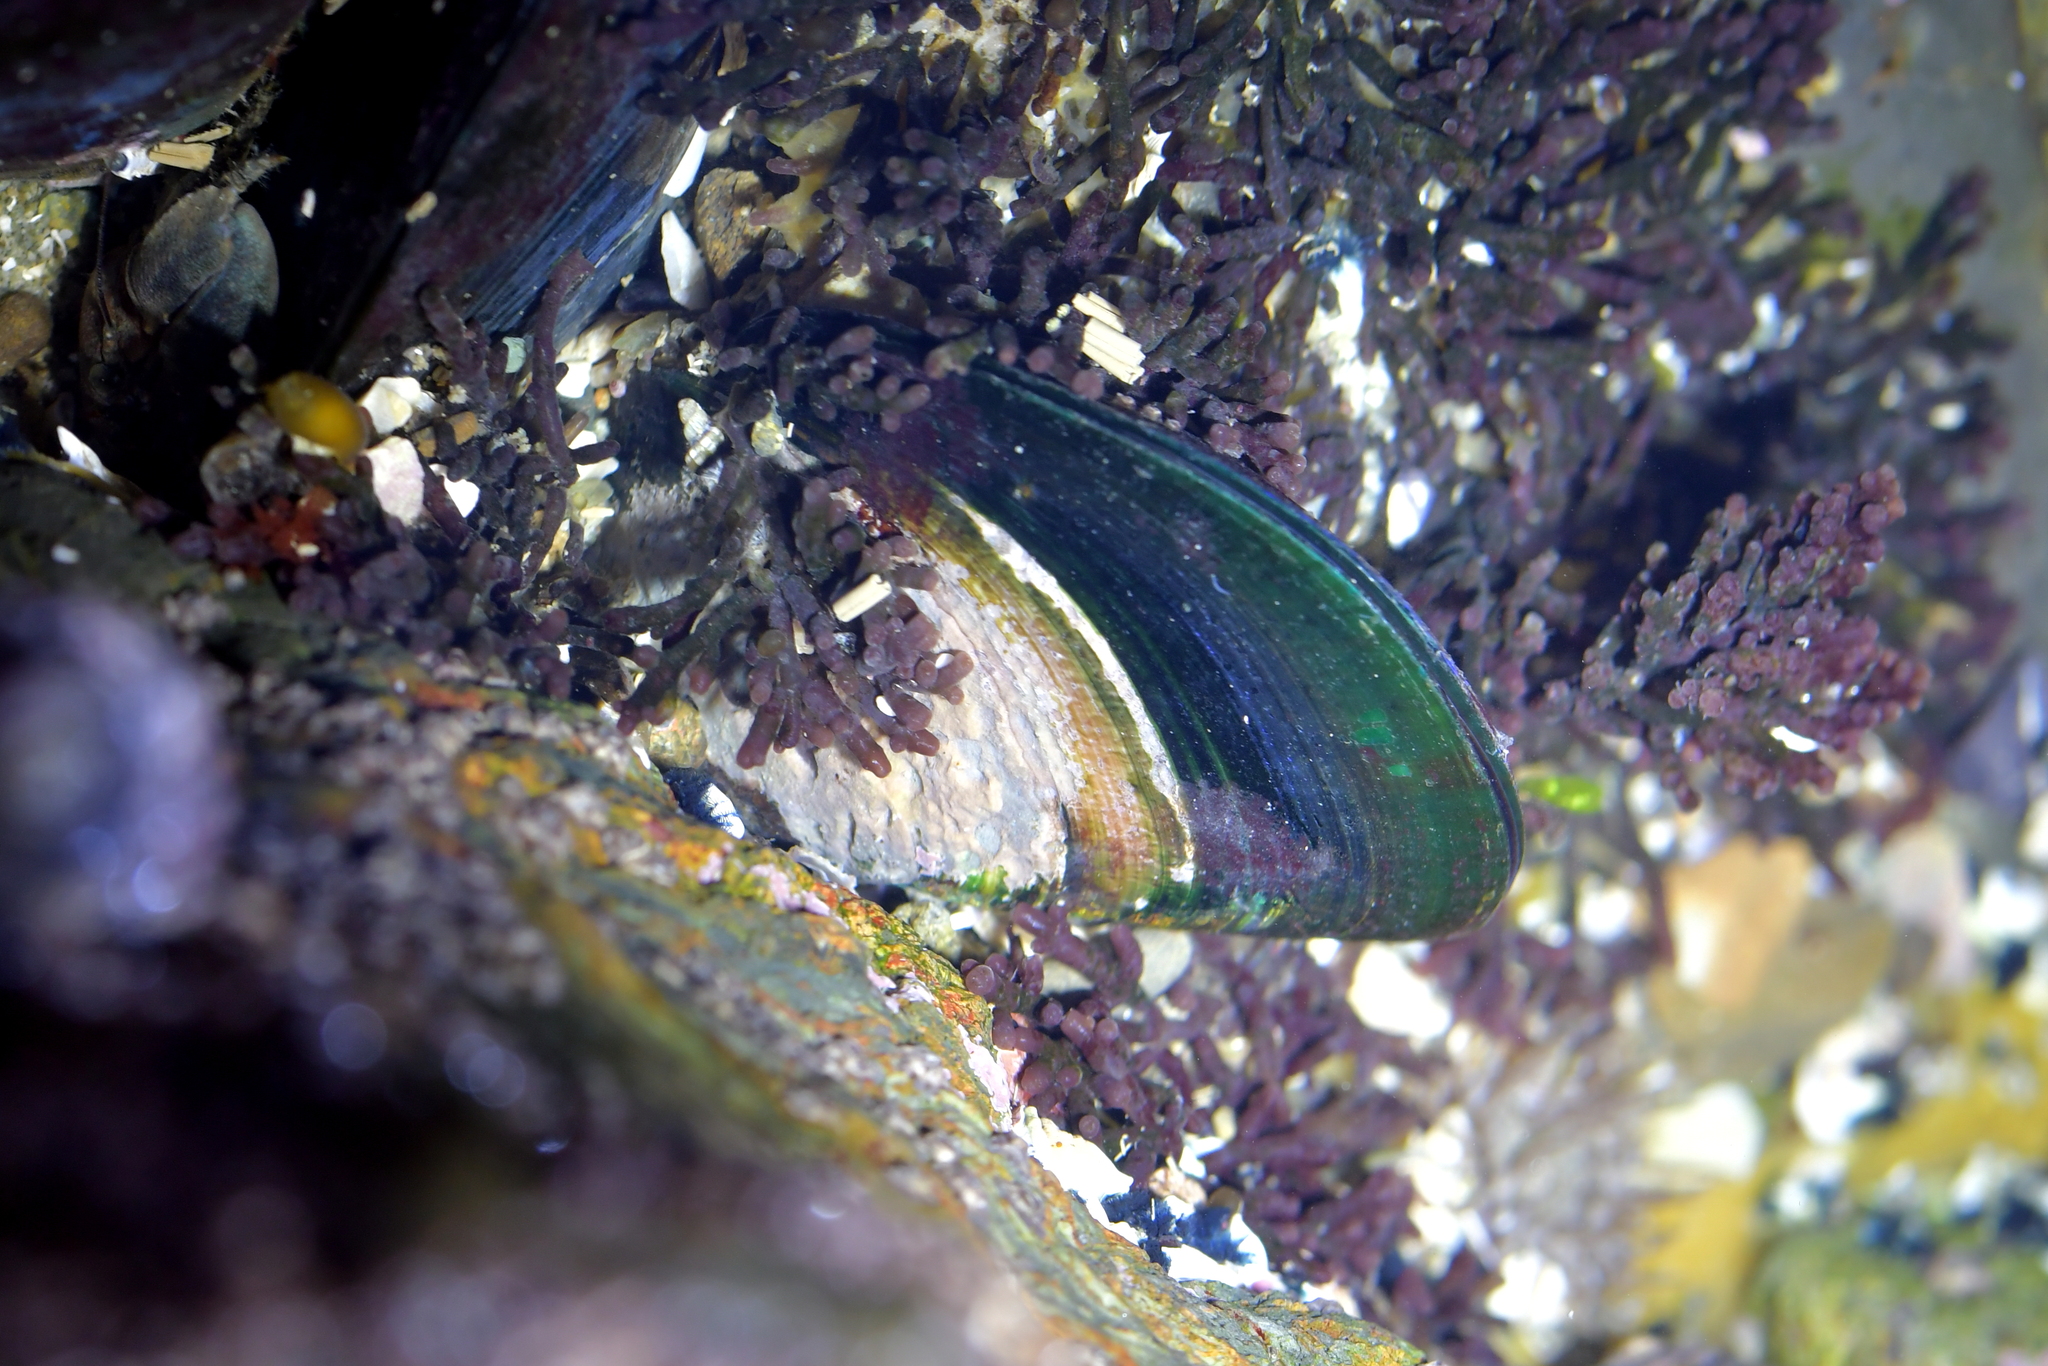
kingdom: Animalia
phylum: Mollusca
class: Bivalvia
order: Mytilida
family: Mytilidae
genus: Perna
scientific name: Perna canaliculus
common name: New zealand greenshelltm
